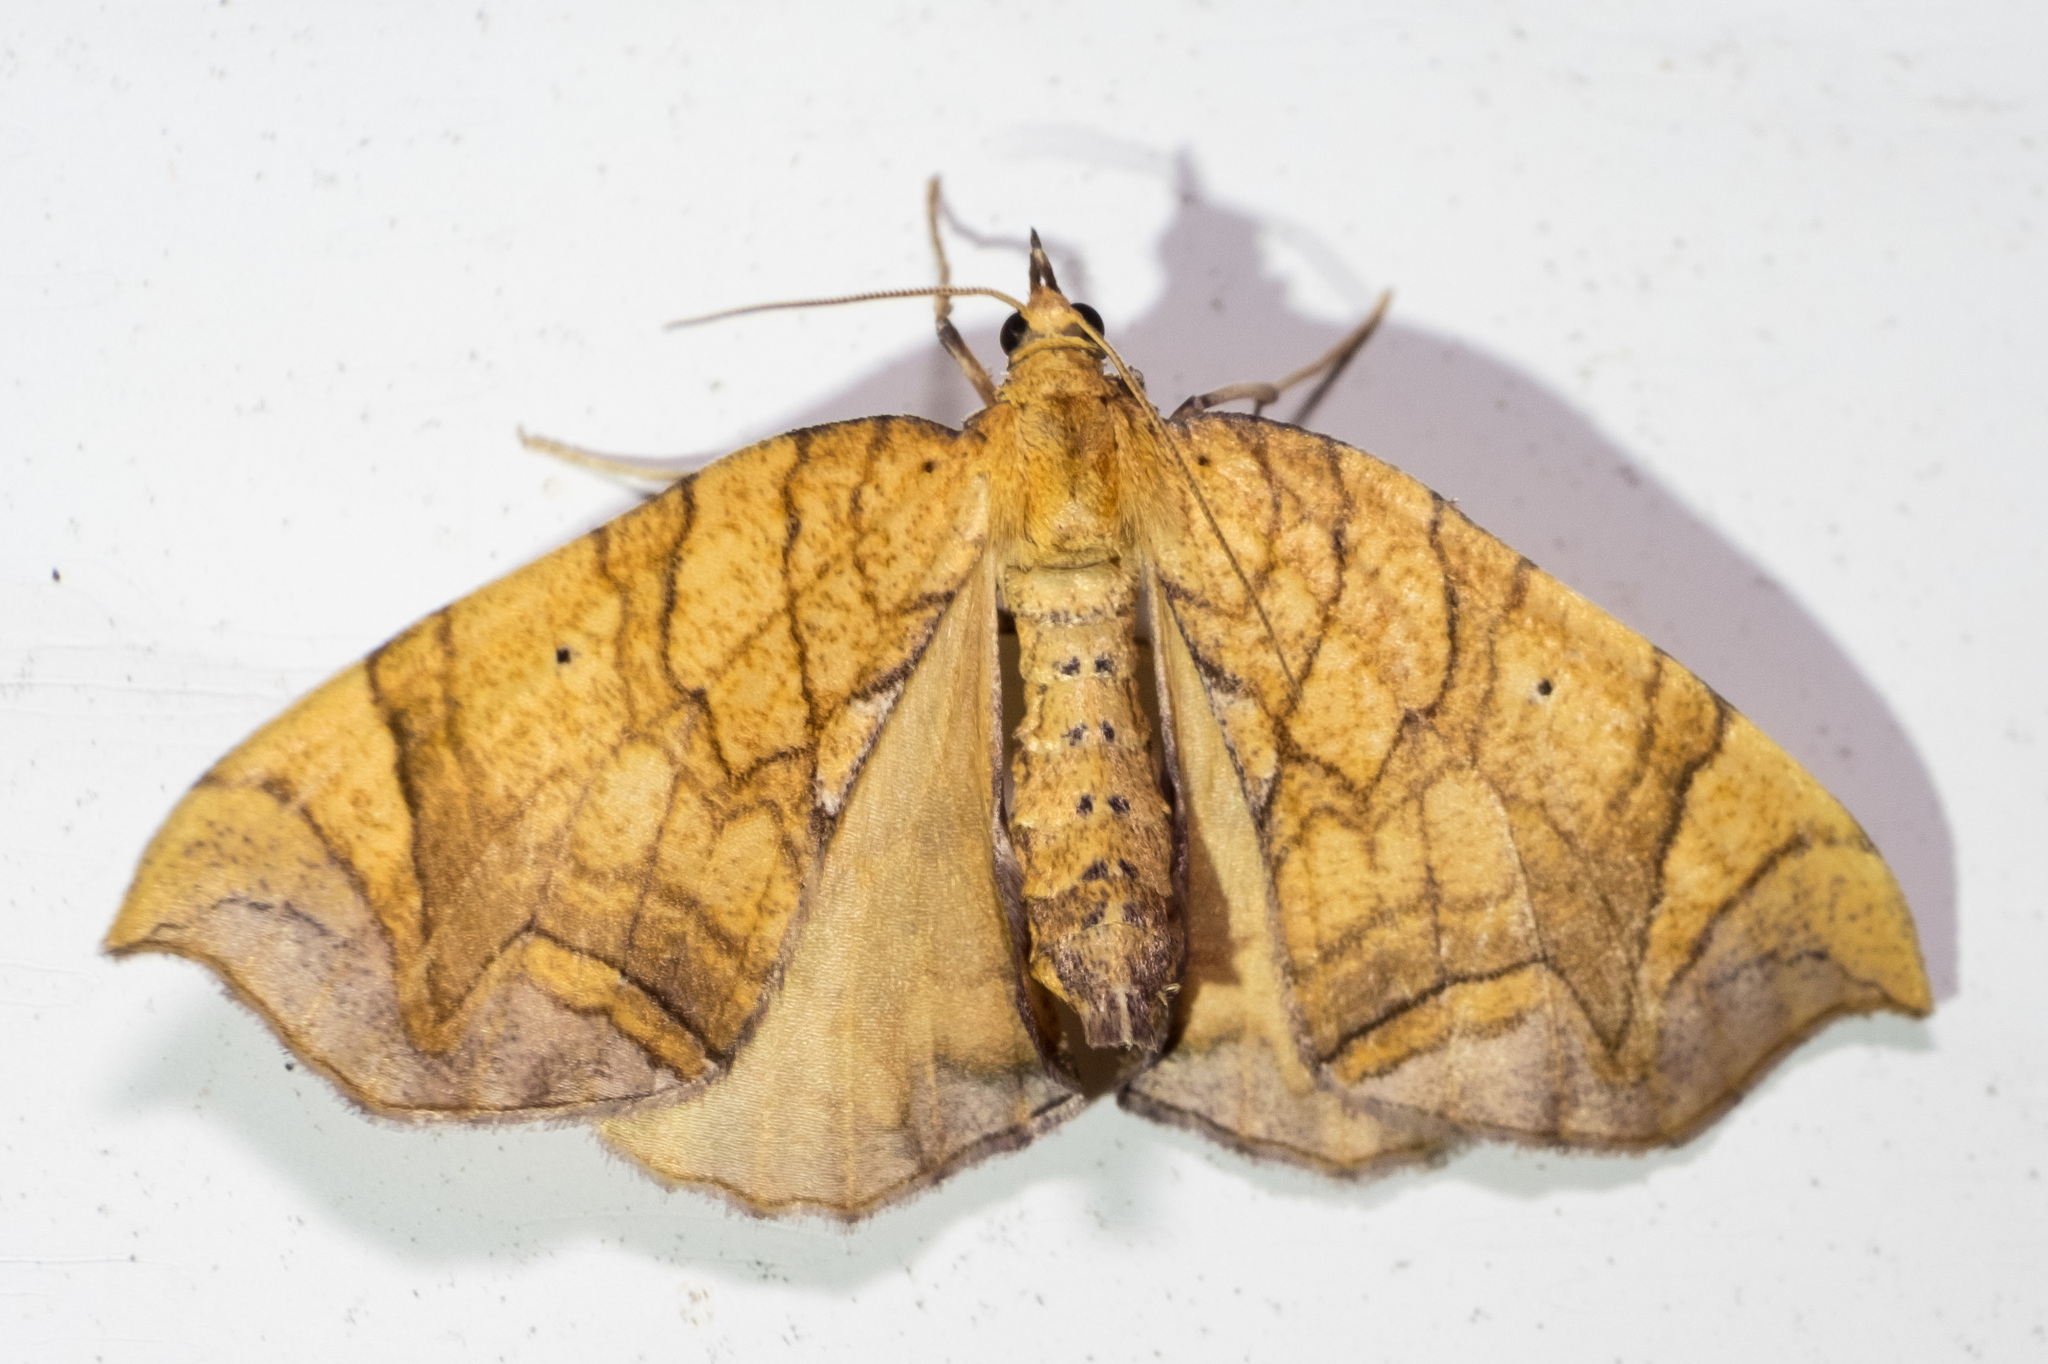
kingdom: Animalia
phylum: Arthropoda
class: Insecta
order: Lepidoptera
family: Geometridae
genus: Eulithis
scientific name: Eulithis gracilineata
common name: Greater grapevine looper moth
